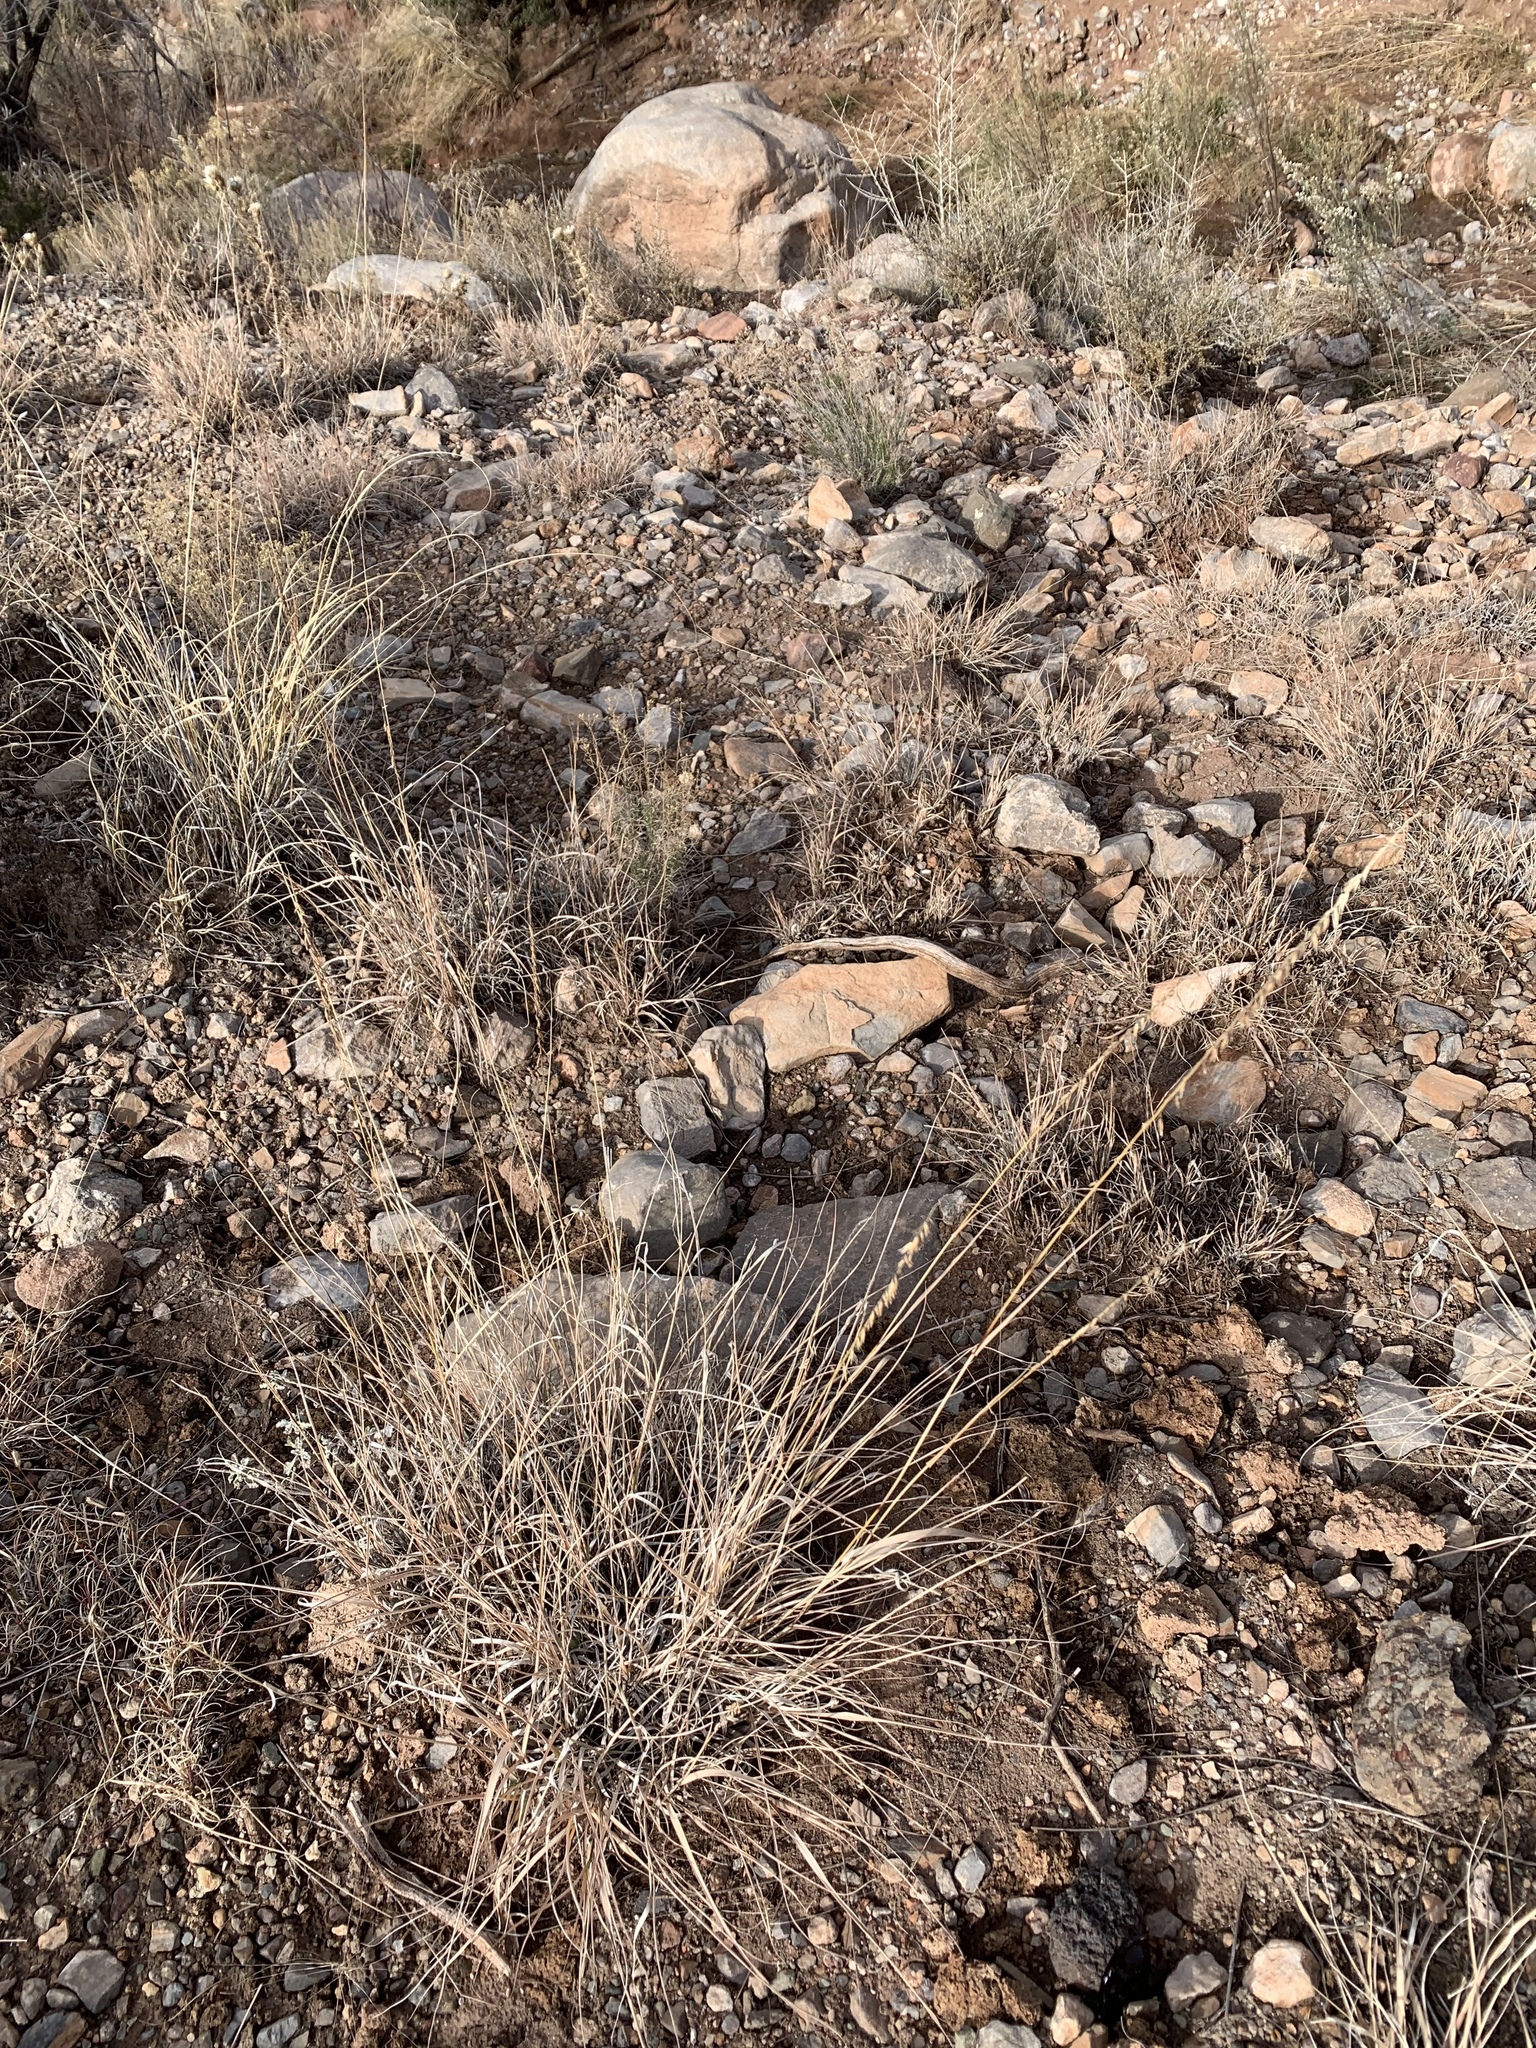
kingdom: Plantae
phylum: Tracheophyta
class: Liliopsida
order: Poales
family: Poaceae
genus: Bouteloua
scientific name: Bouteloua curtipendula
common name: Side-oats grama
